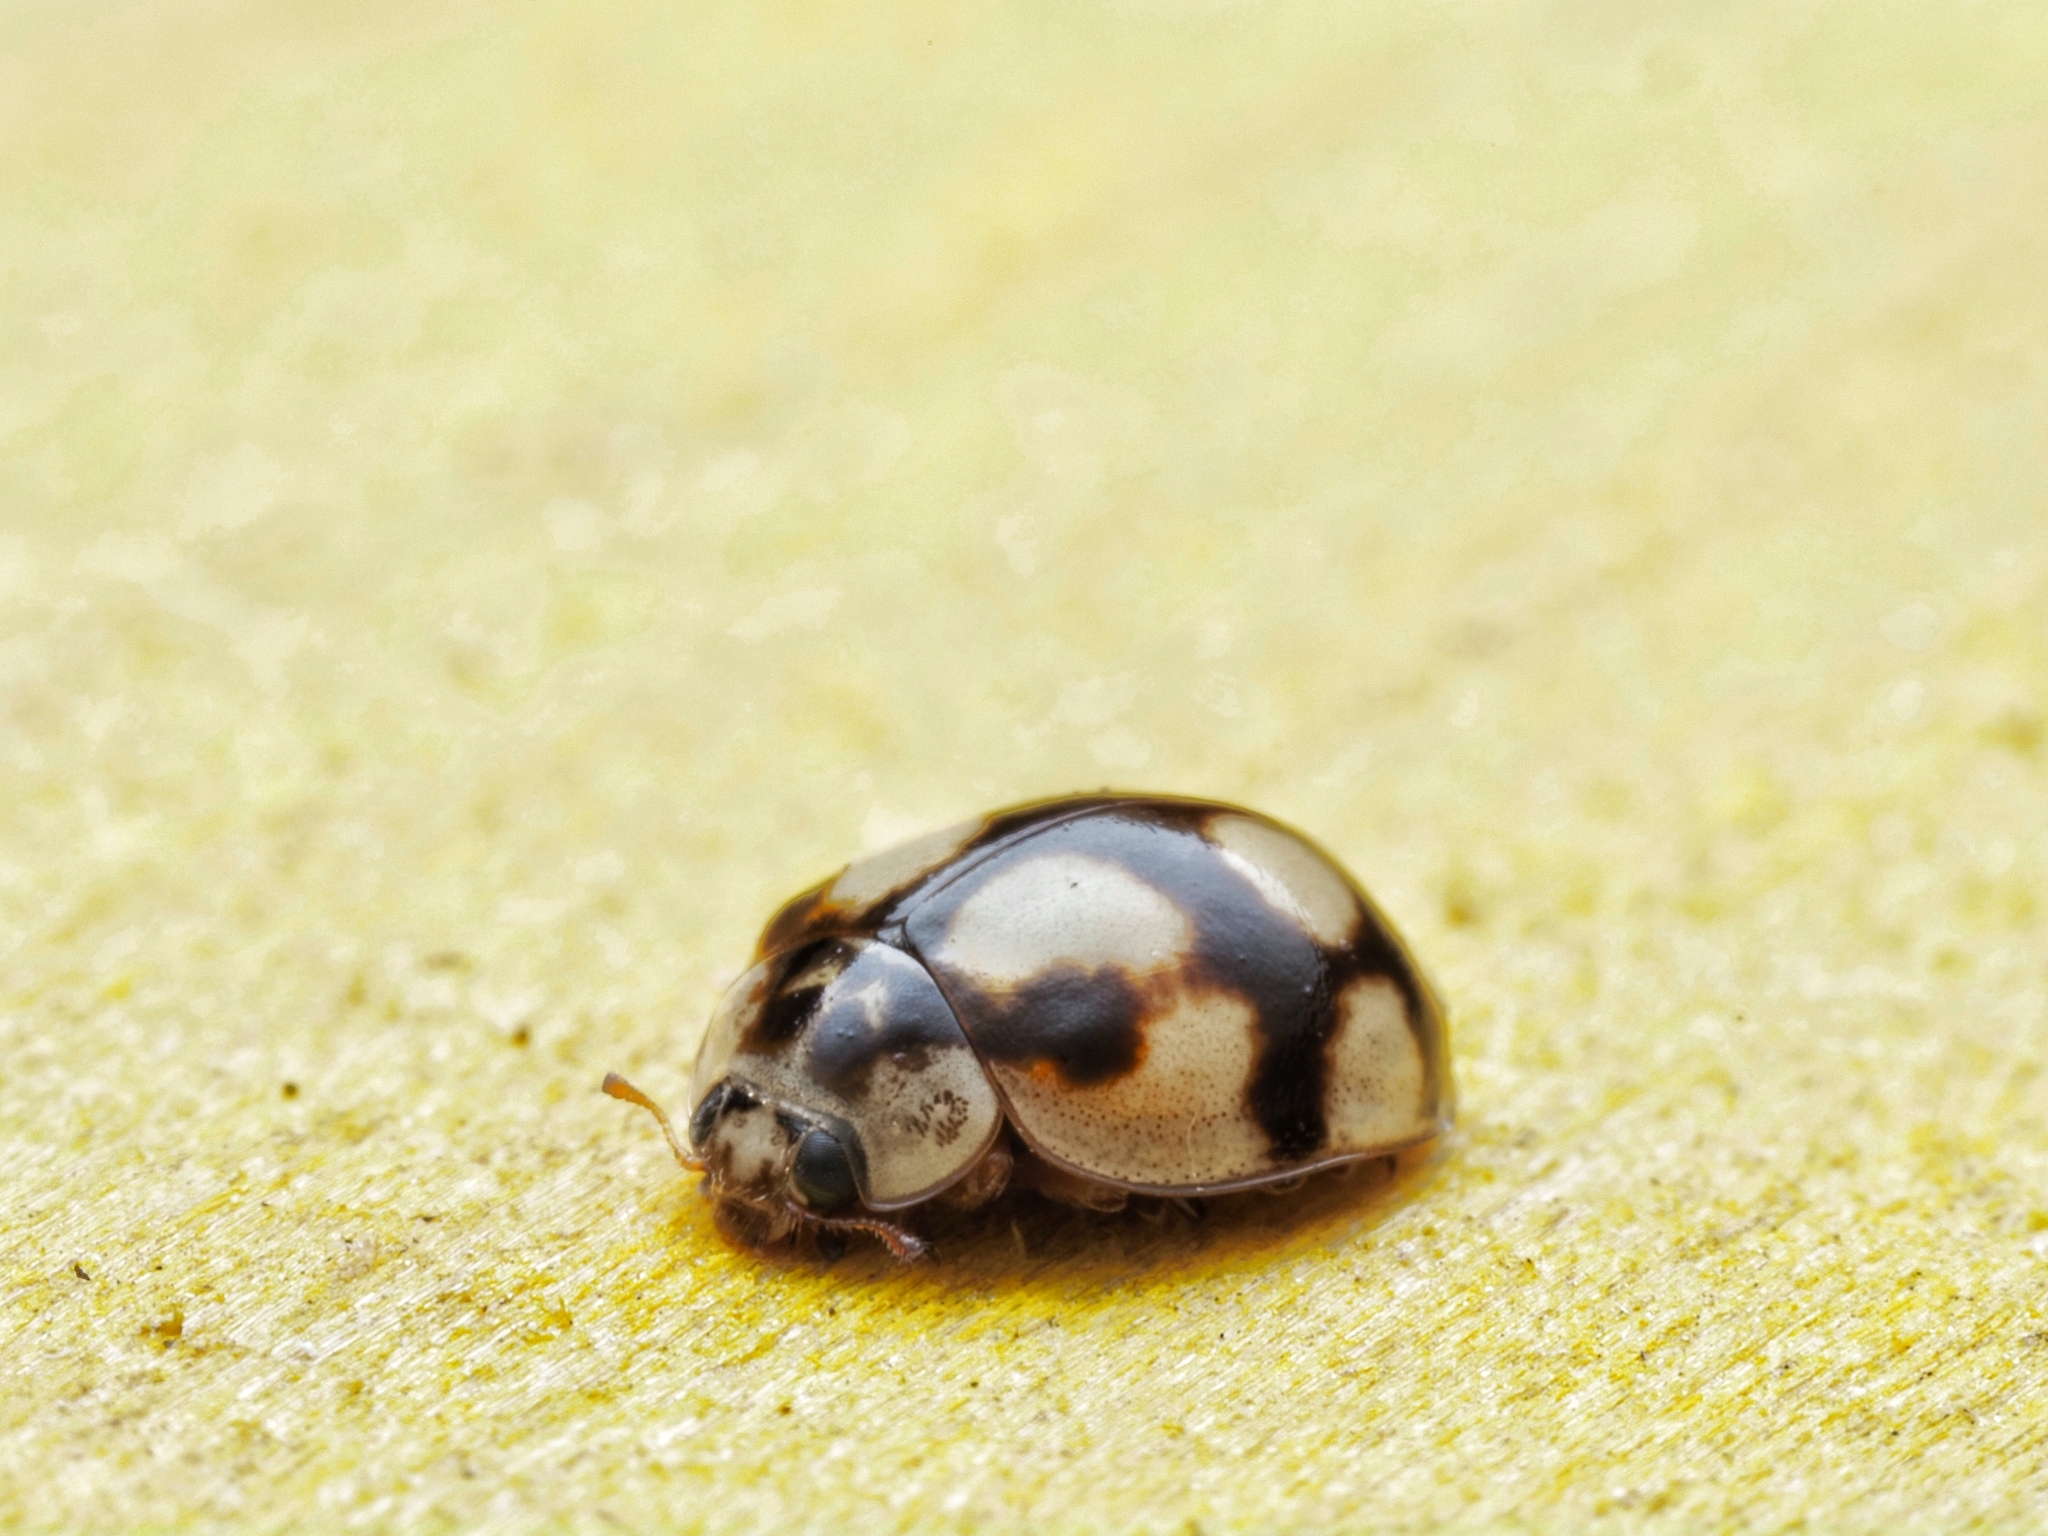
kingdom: Animalia
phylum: Arthropoda
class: Insecta
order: Coleoptera
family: Coccinellidae
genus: Adalia
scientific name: Adalia decempunctata
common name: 10-spot ladybird
